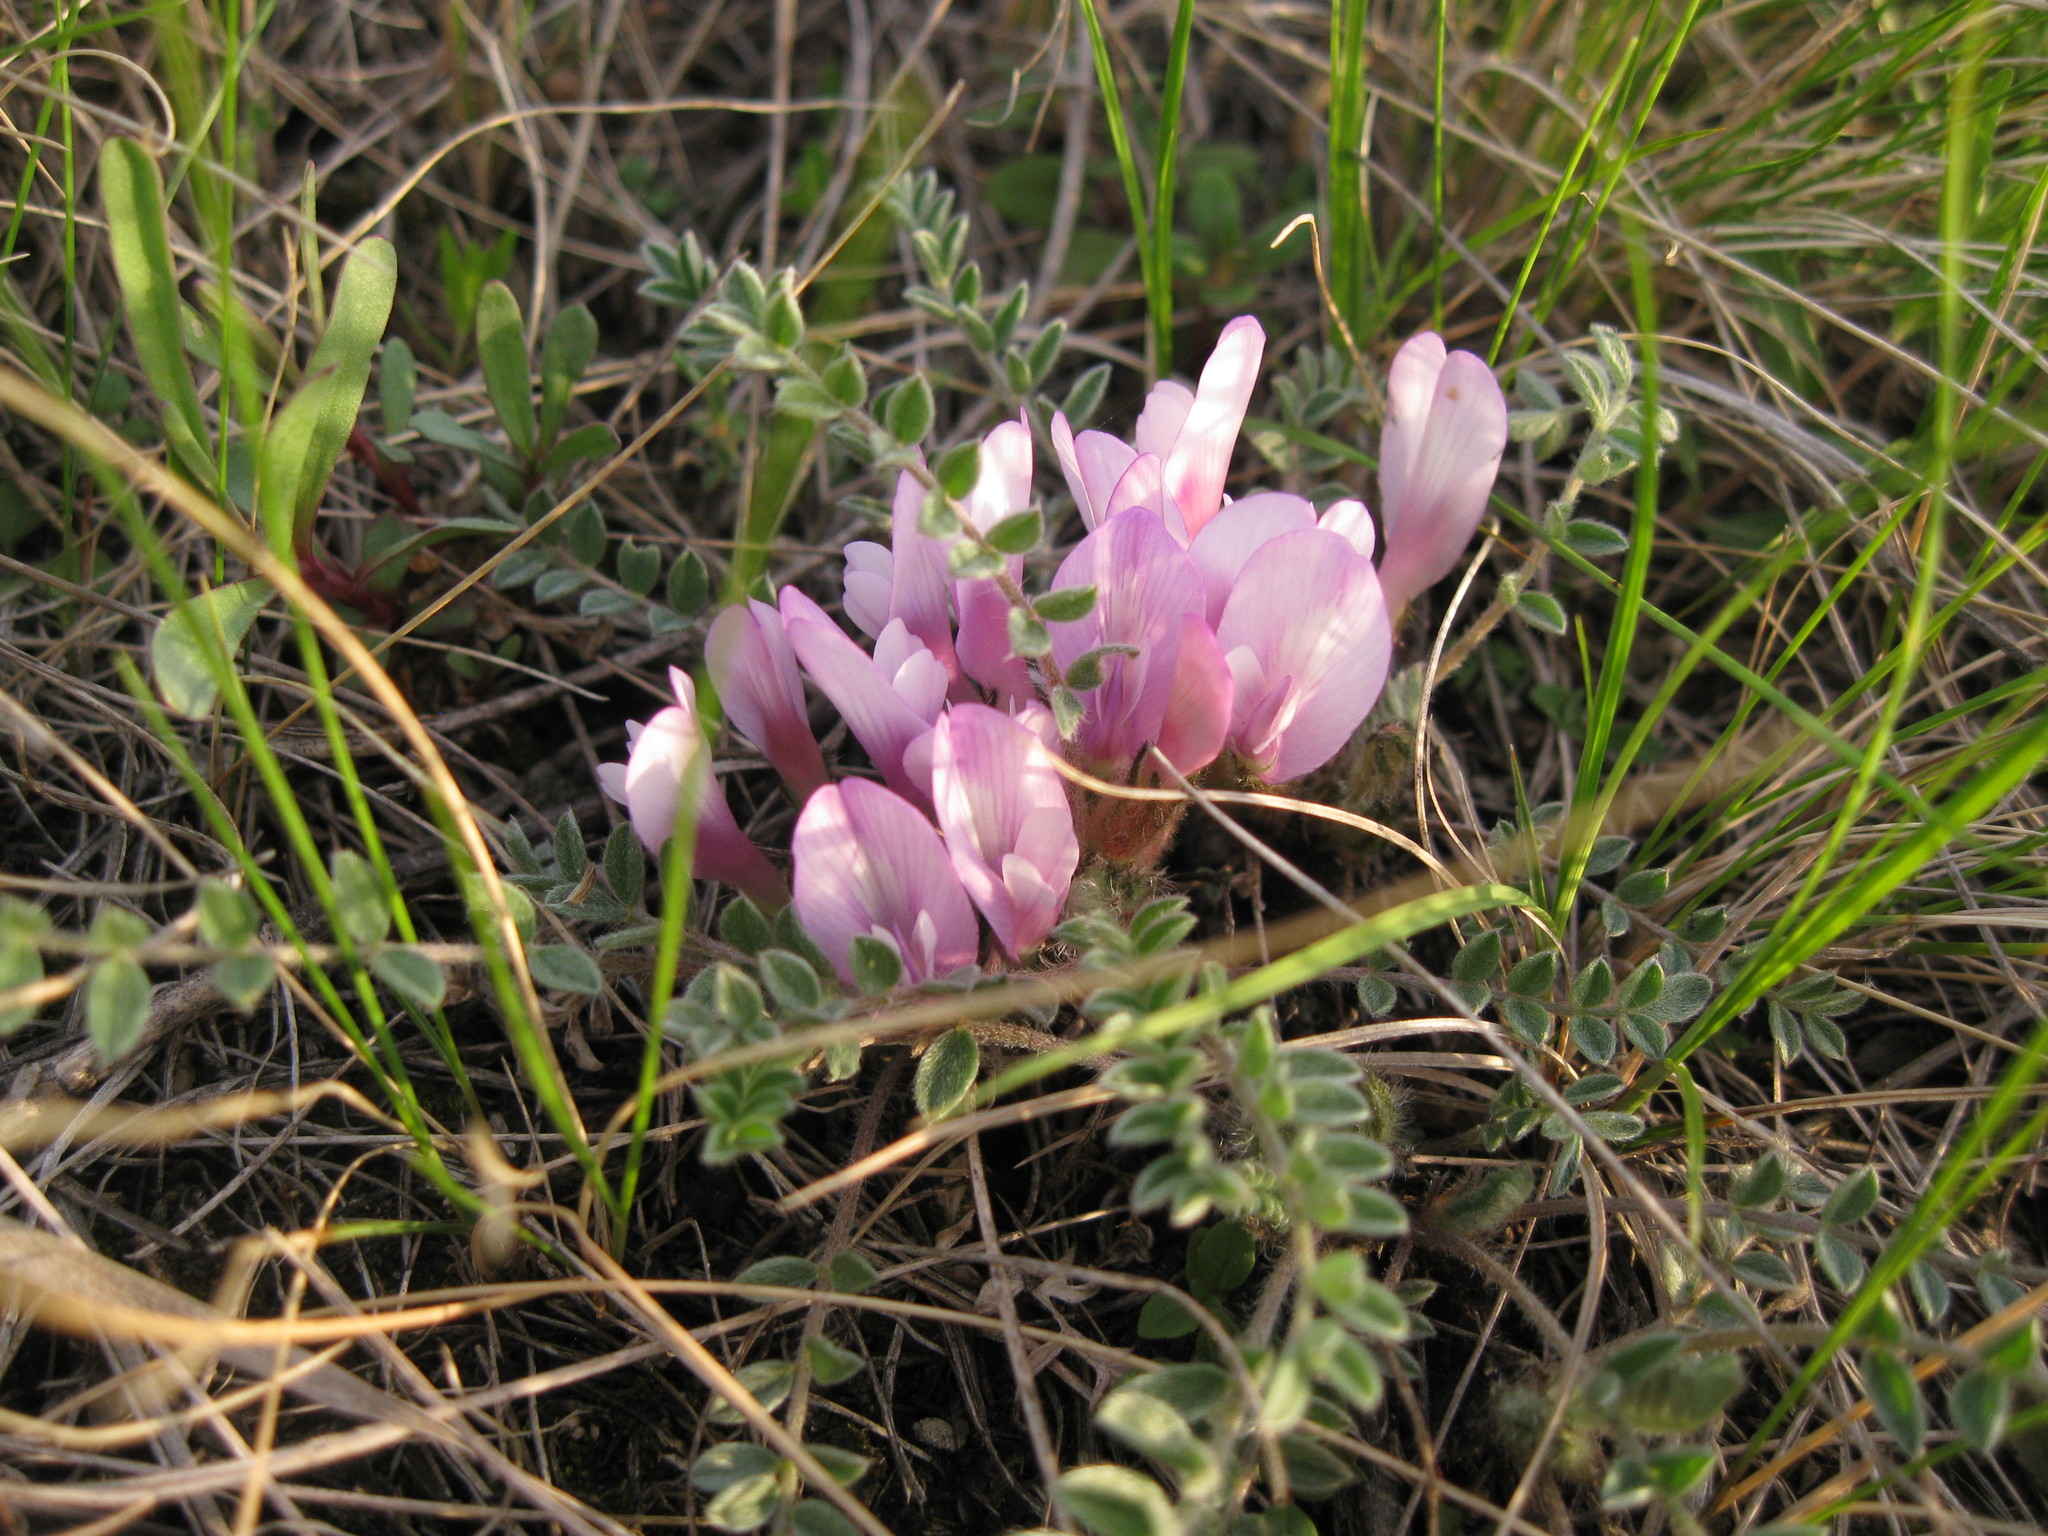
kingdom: Plantae
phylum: Tracheophyta
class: Magnoliopsida
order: Fabales
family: Fabaceae
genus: Astragalus
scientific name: Astragalus testiculatus
